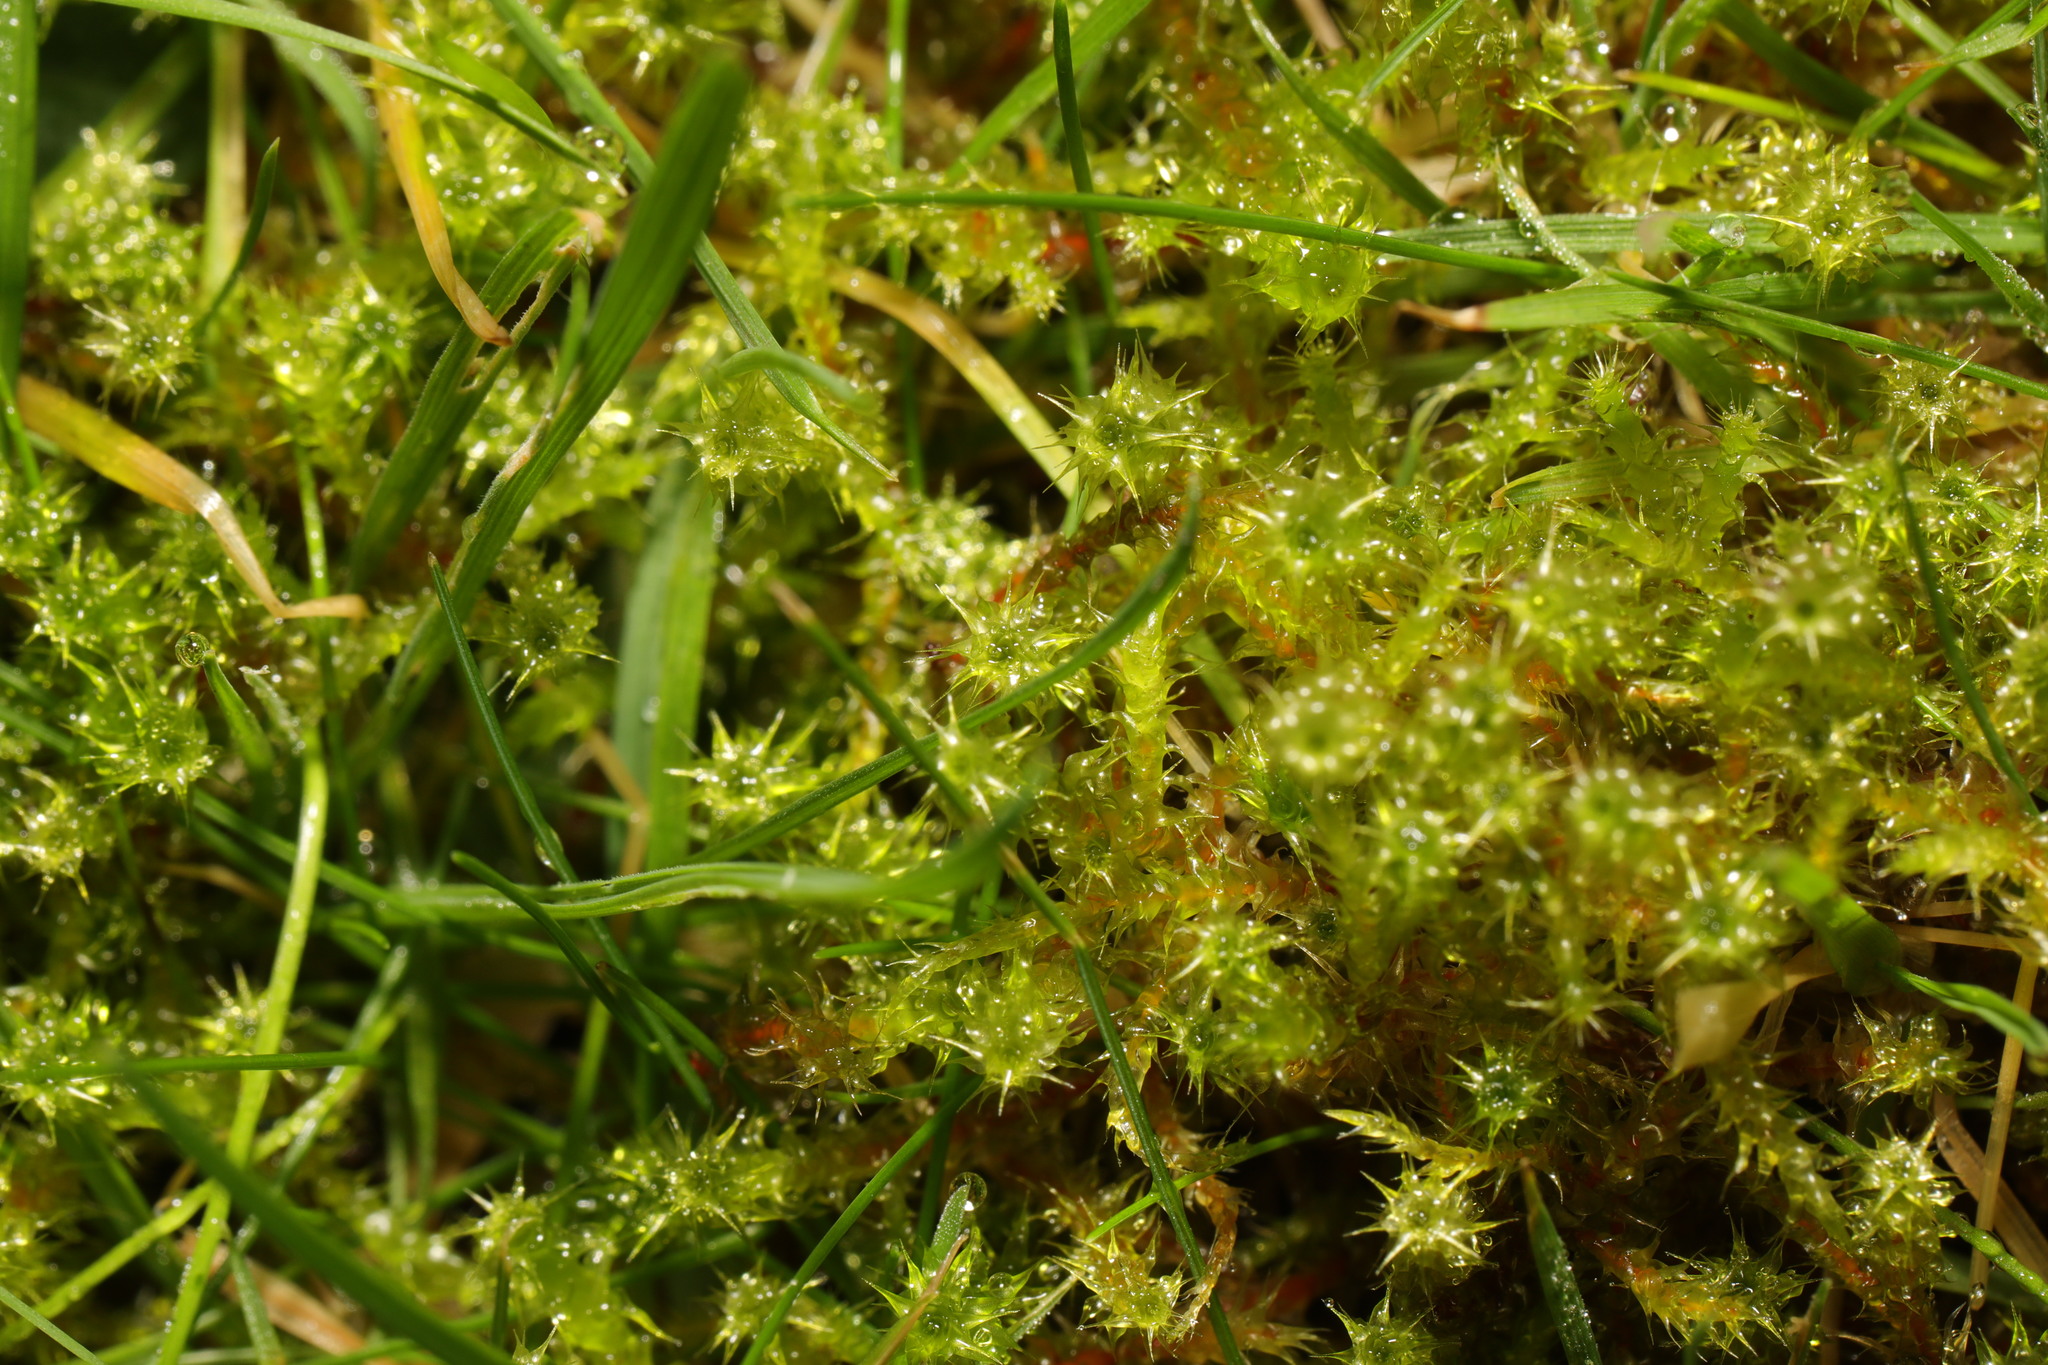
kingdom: Plantae
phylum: Bryophyta
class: Bryopsida
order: Hypnales
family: Hylocomiaceae
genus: Rhytidiadelphus
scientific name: Rhytidiadelphus squarrosus
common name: Springy turf-moss
